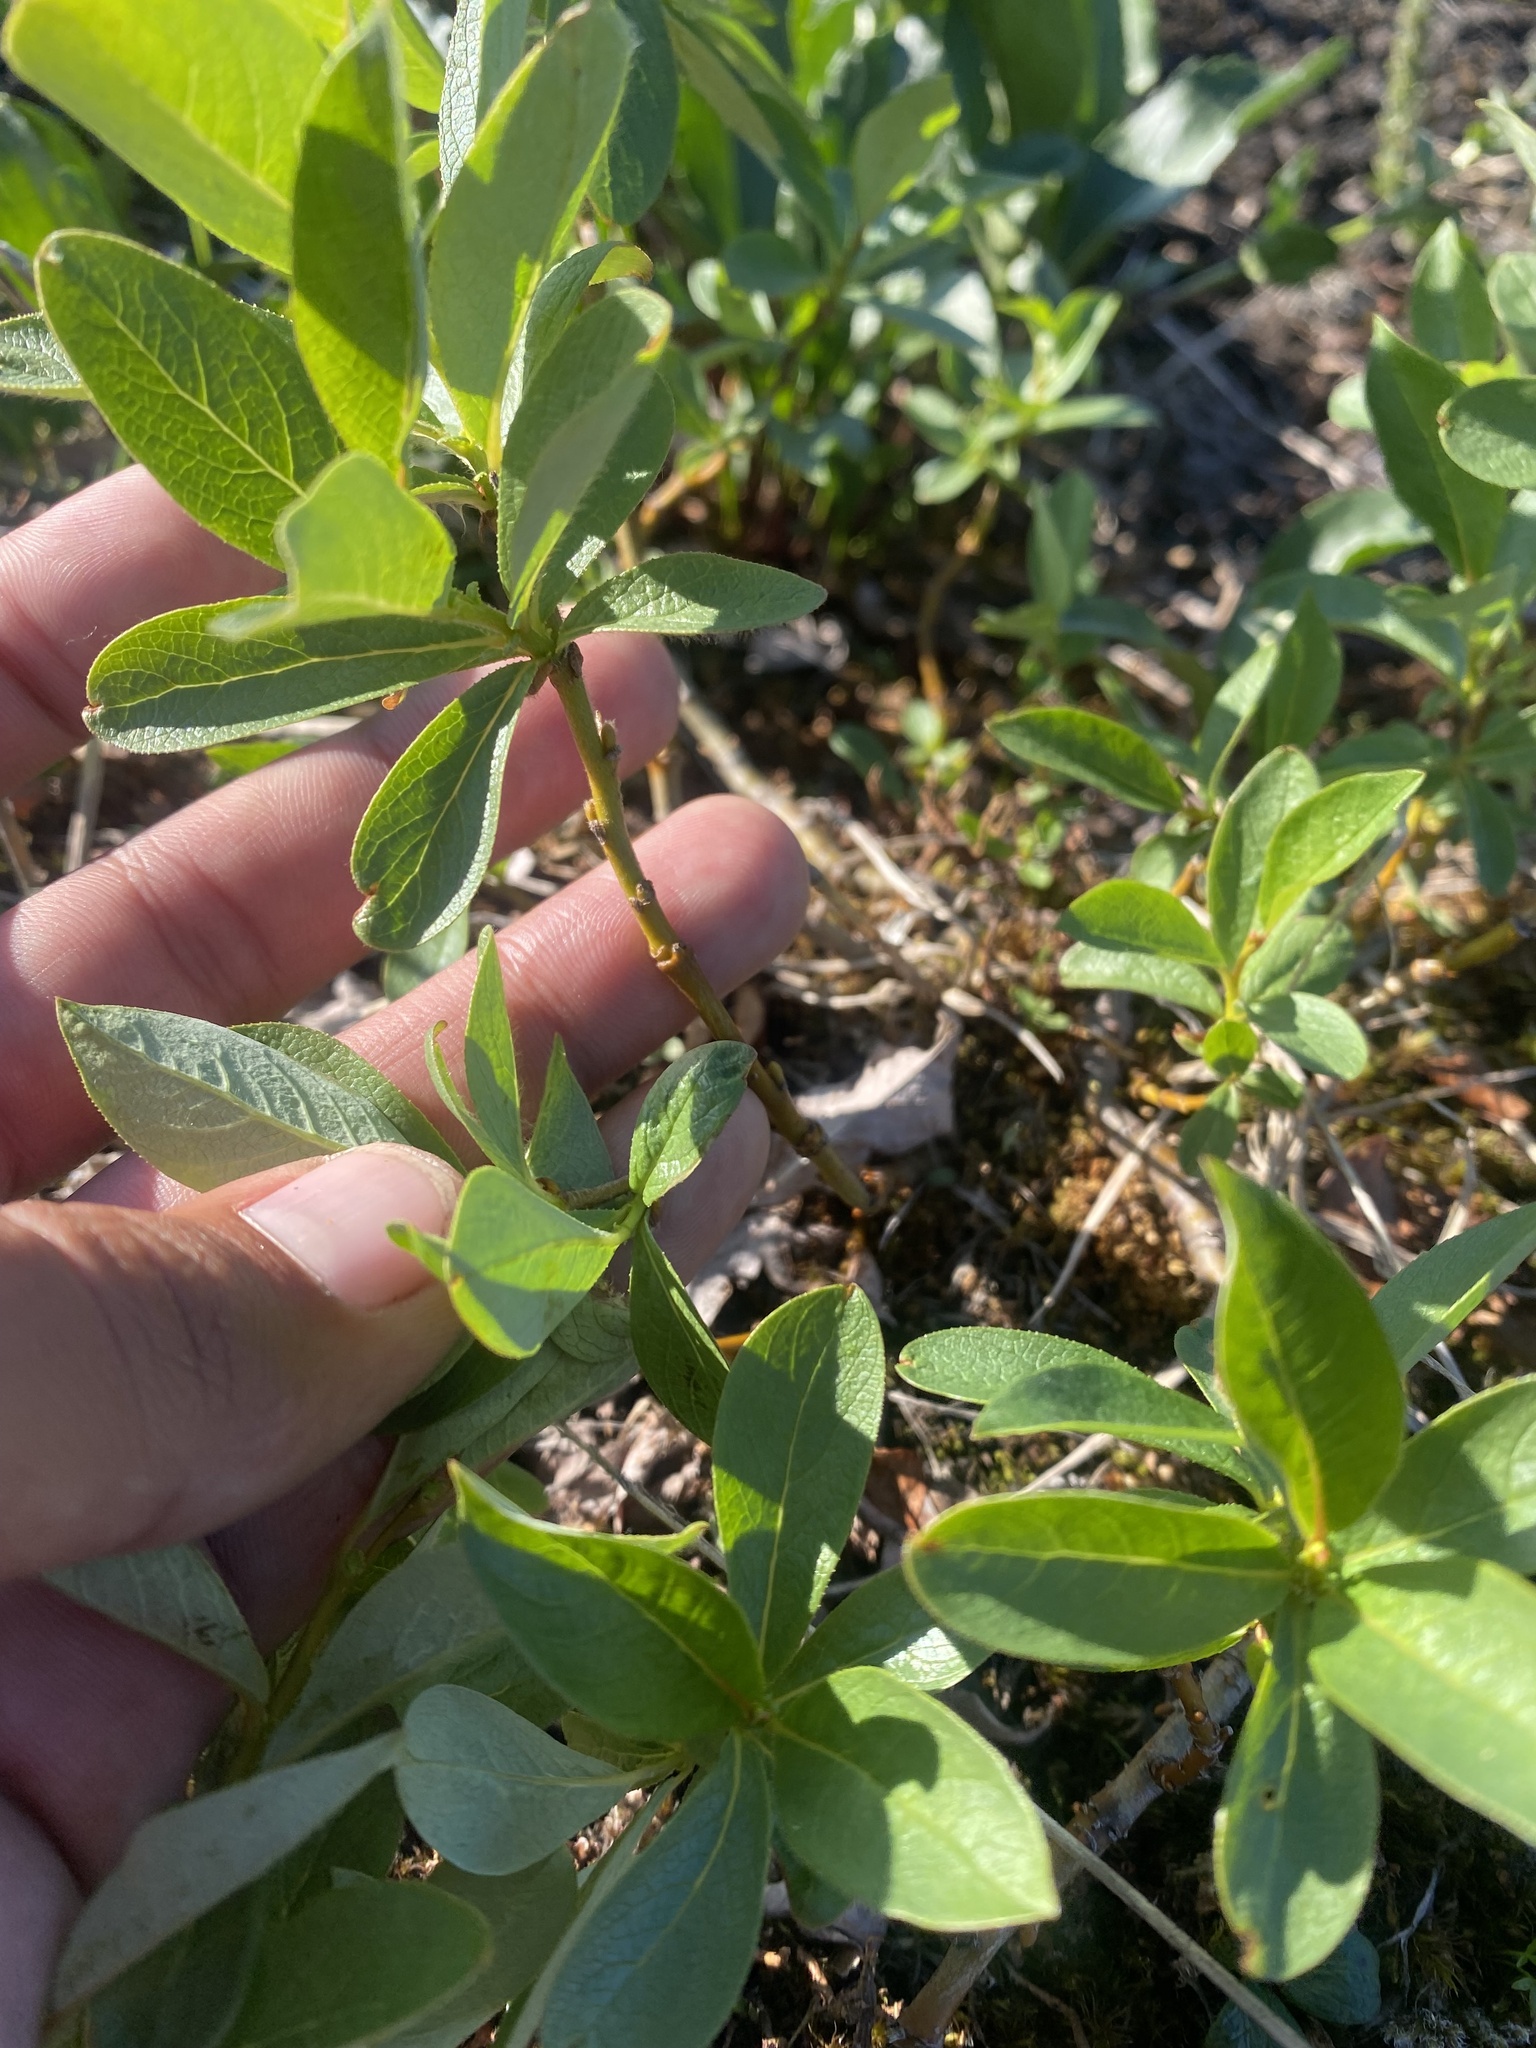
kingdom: Plantae
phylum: Tracheophyta
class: Magnoliopsida
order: Malpighiales
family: Salicaceae
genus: Salix
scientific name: Salix hastata
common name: Halberd willow
